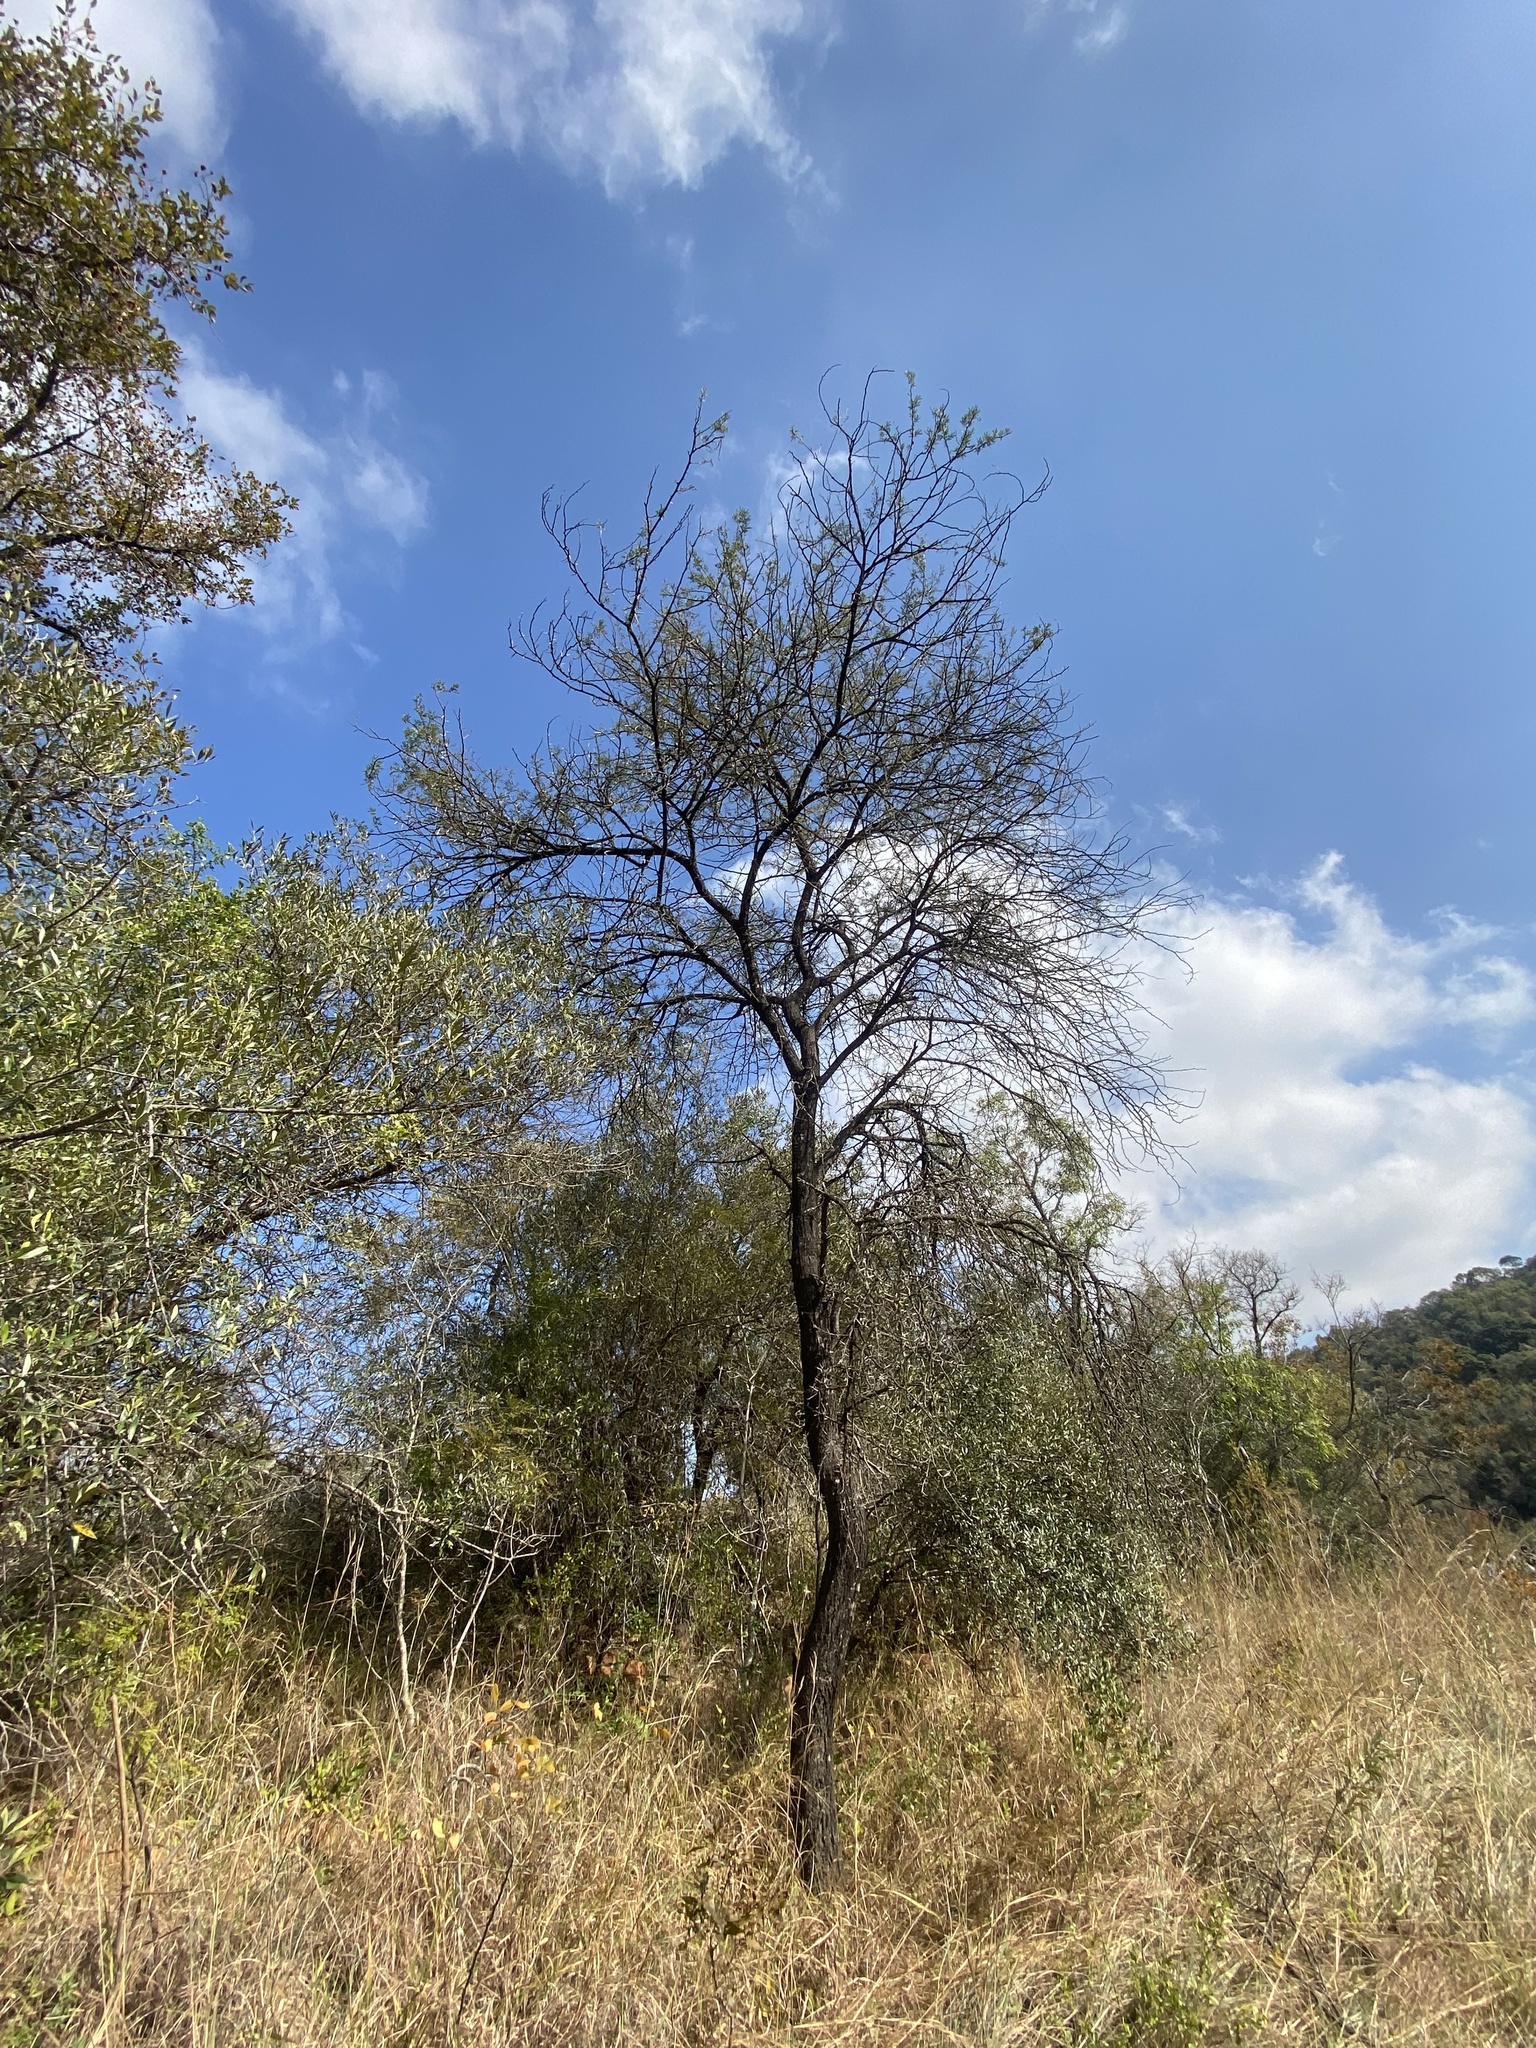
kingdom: Plantae
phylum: Tracheophyta
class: Magnoliopsida
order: Fabales
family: Fabaceae
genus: Vachellia
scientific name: Vachellia karroo
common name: Sweet thorn
